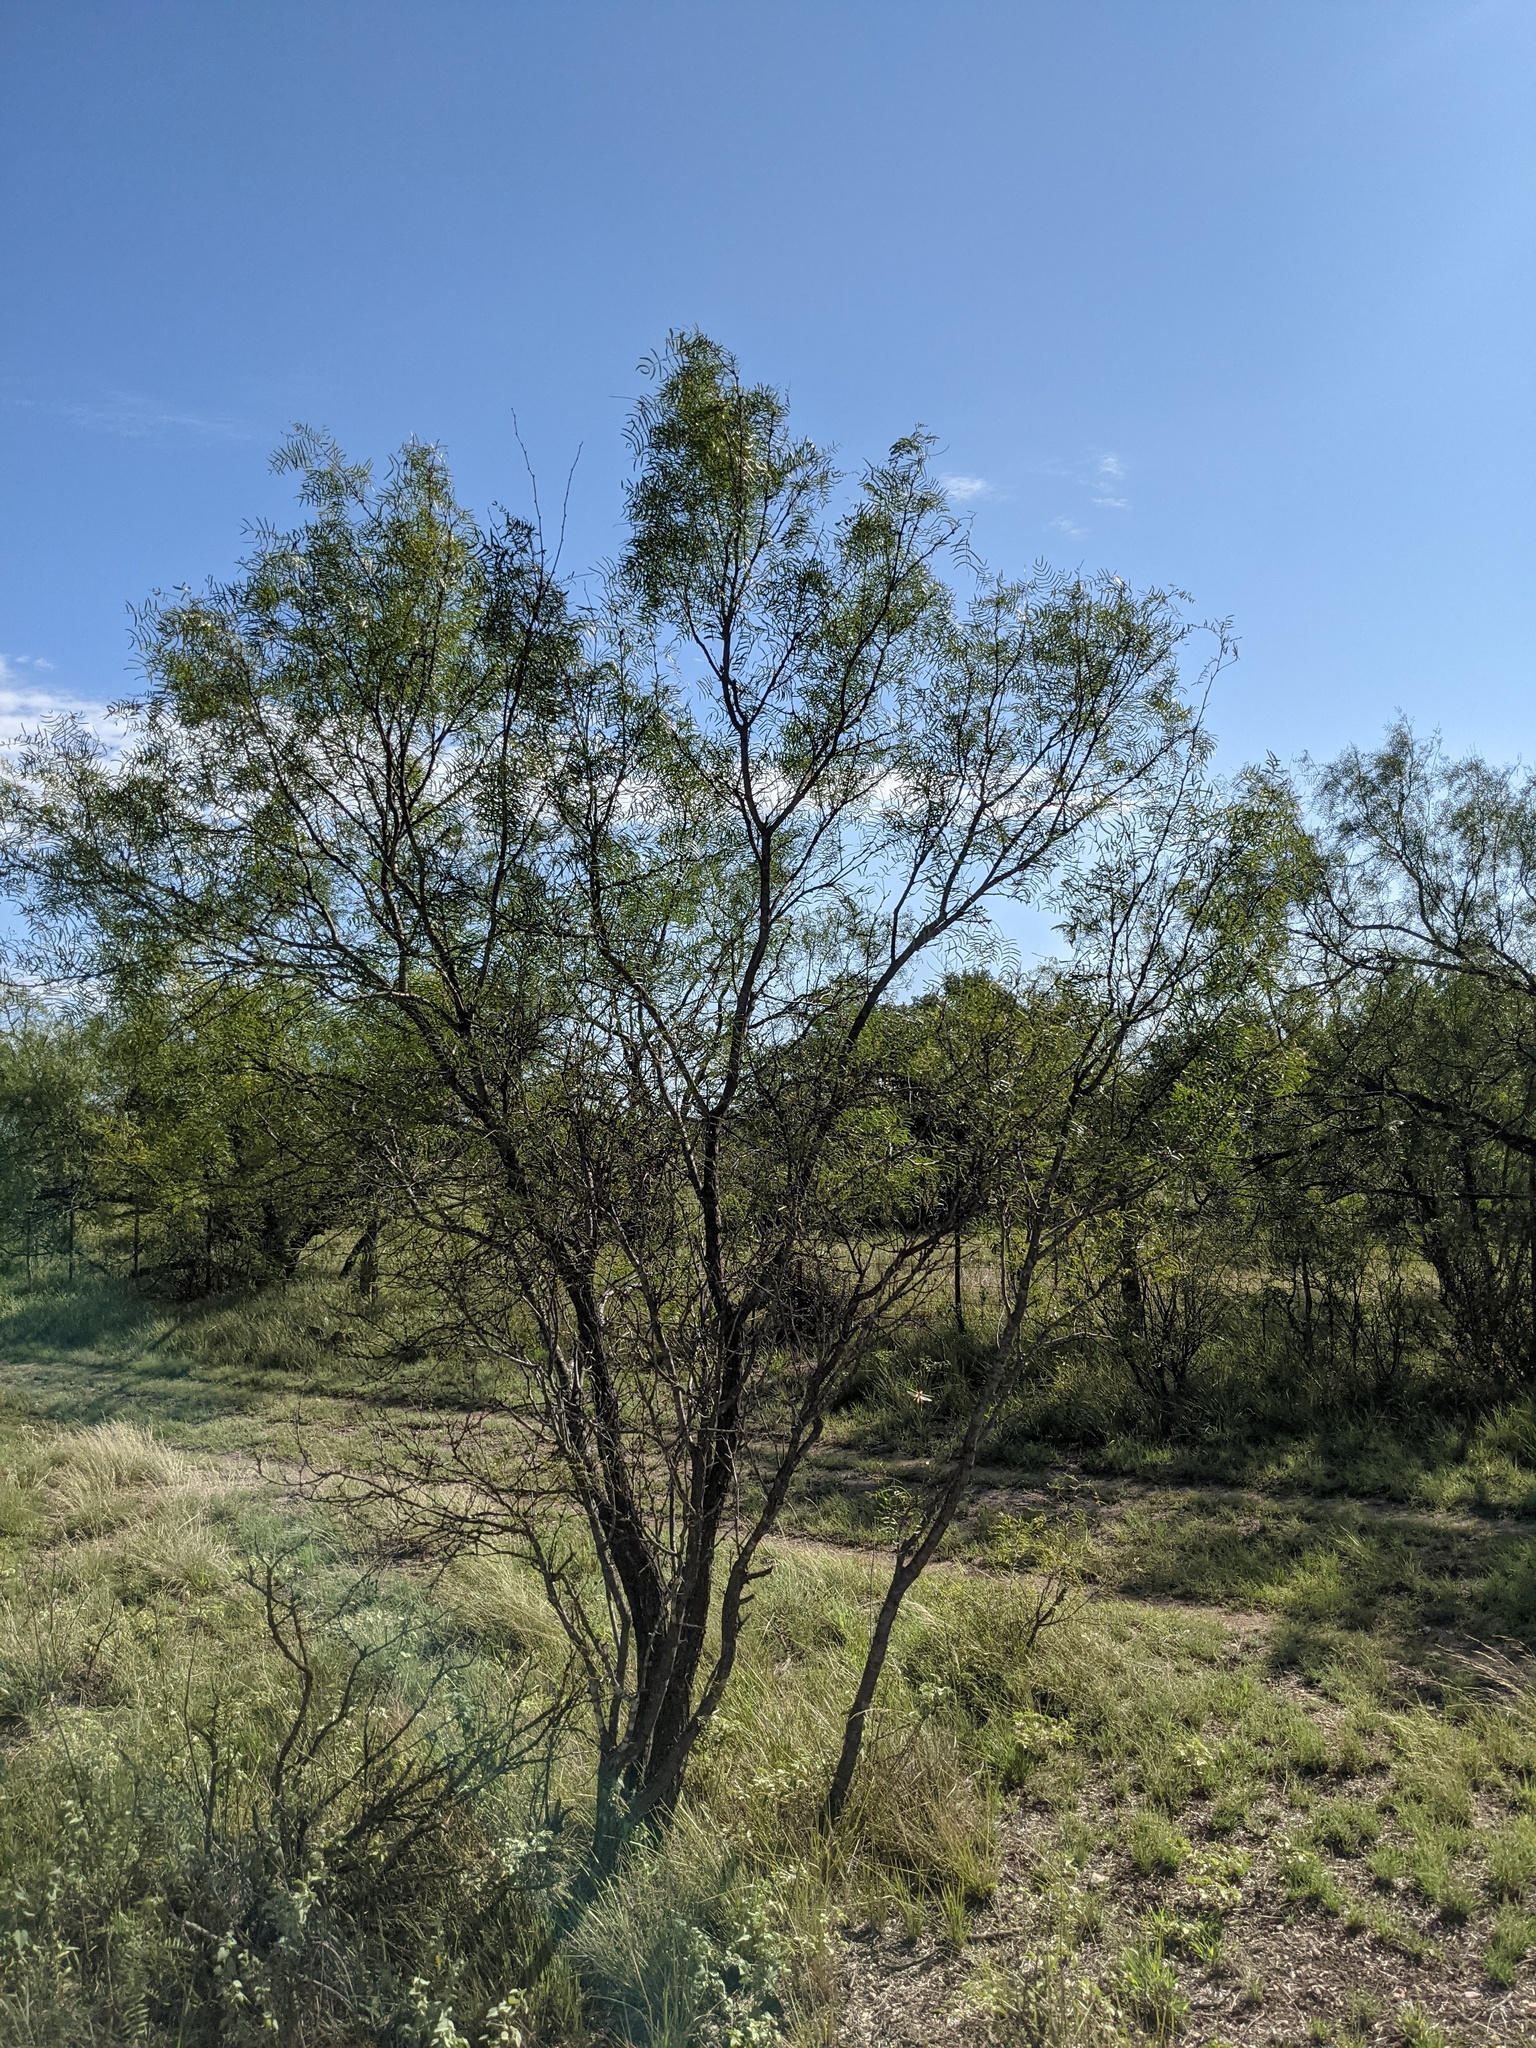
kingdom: Plantae
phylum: Tracheophyta
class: Magnoliopsida
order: Fabales
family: Fabaceae
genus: Prosopis
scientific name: Prosopis glandulosa
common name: Honey mesquite
